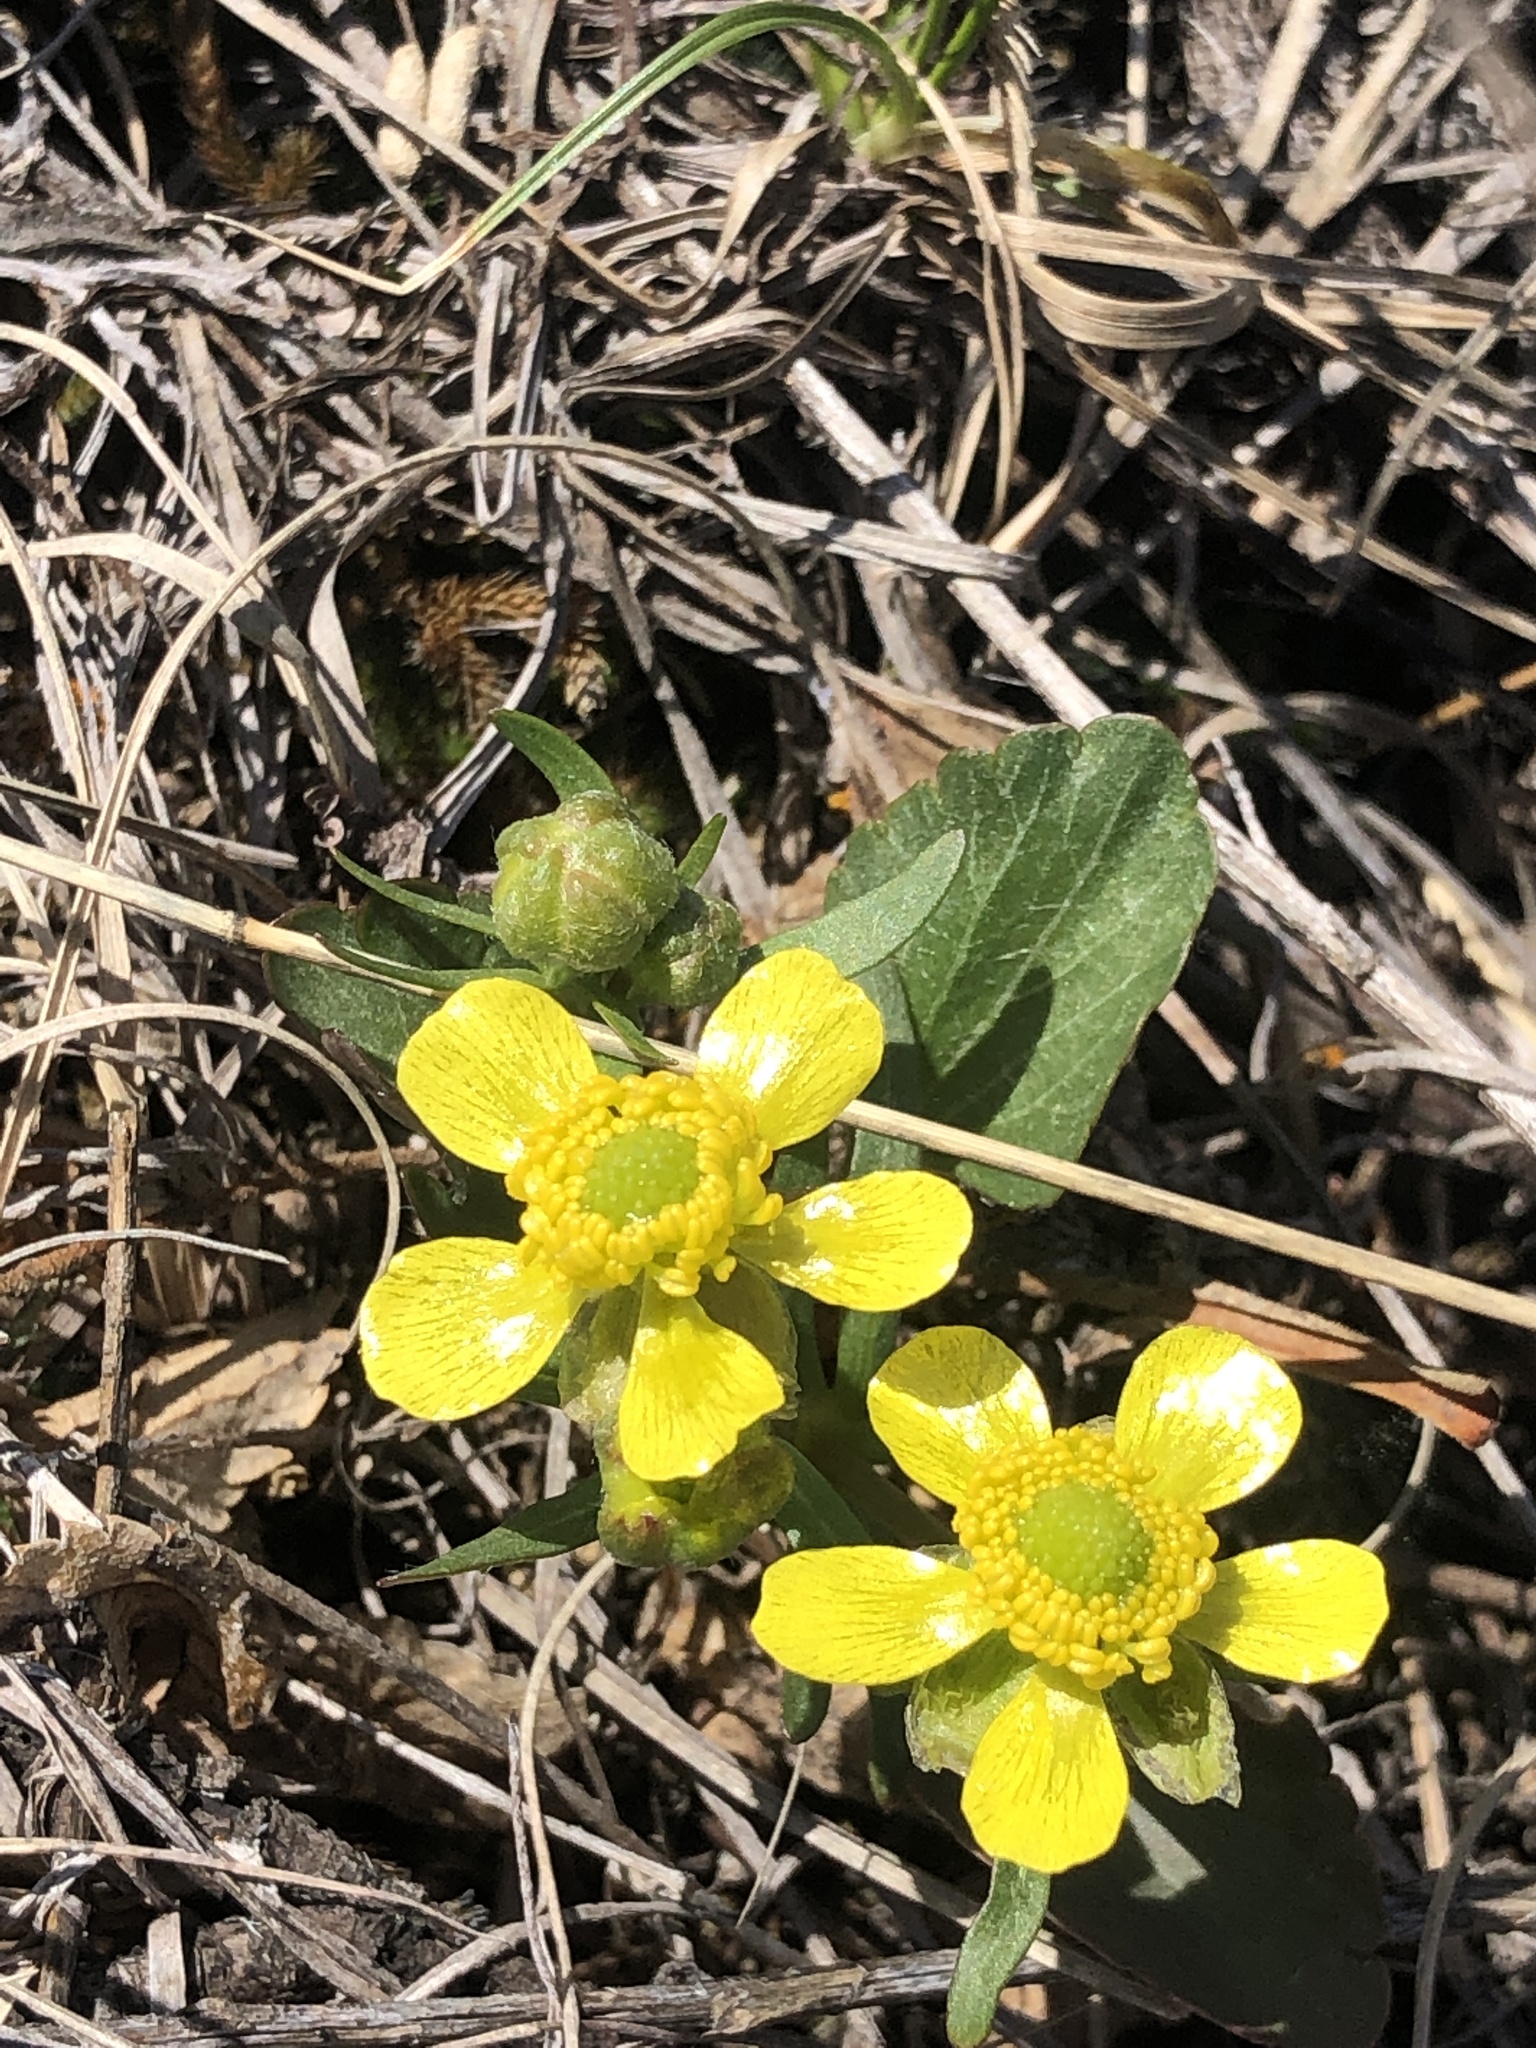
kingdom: Plantae
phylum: Tracheophyta
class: Magnoliopsida
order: Ranunculales
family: Ranunculaceae
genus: Ranunculus
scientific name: Ranunculus rhomboideus
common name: Prairie buttercup
